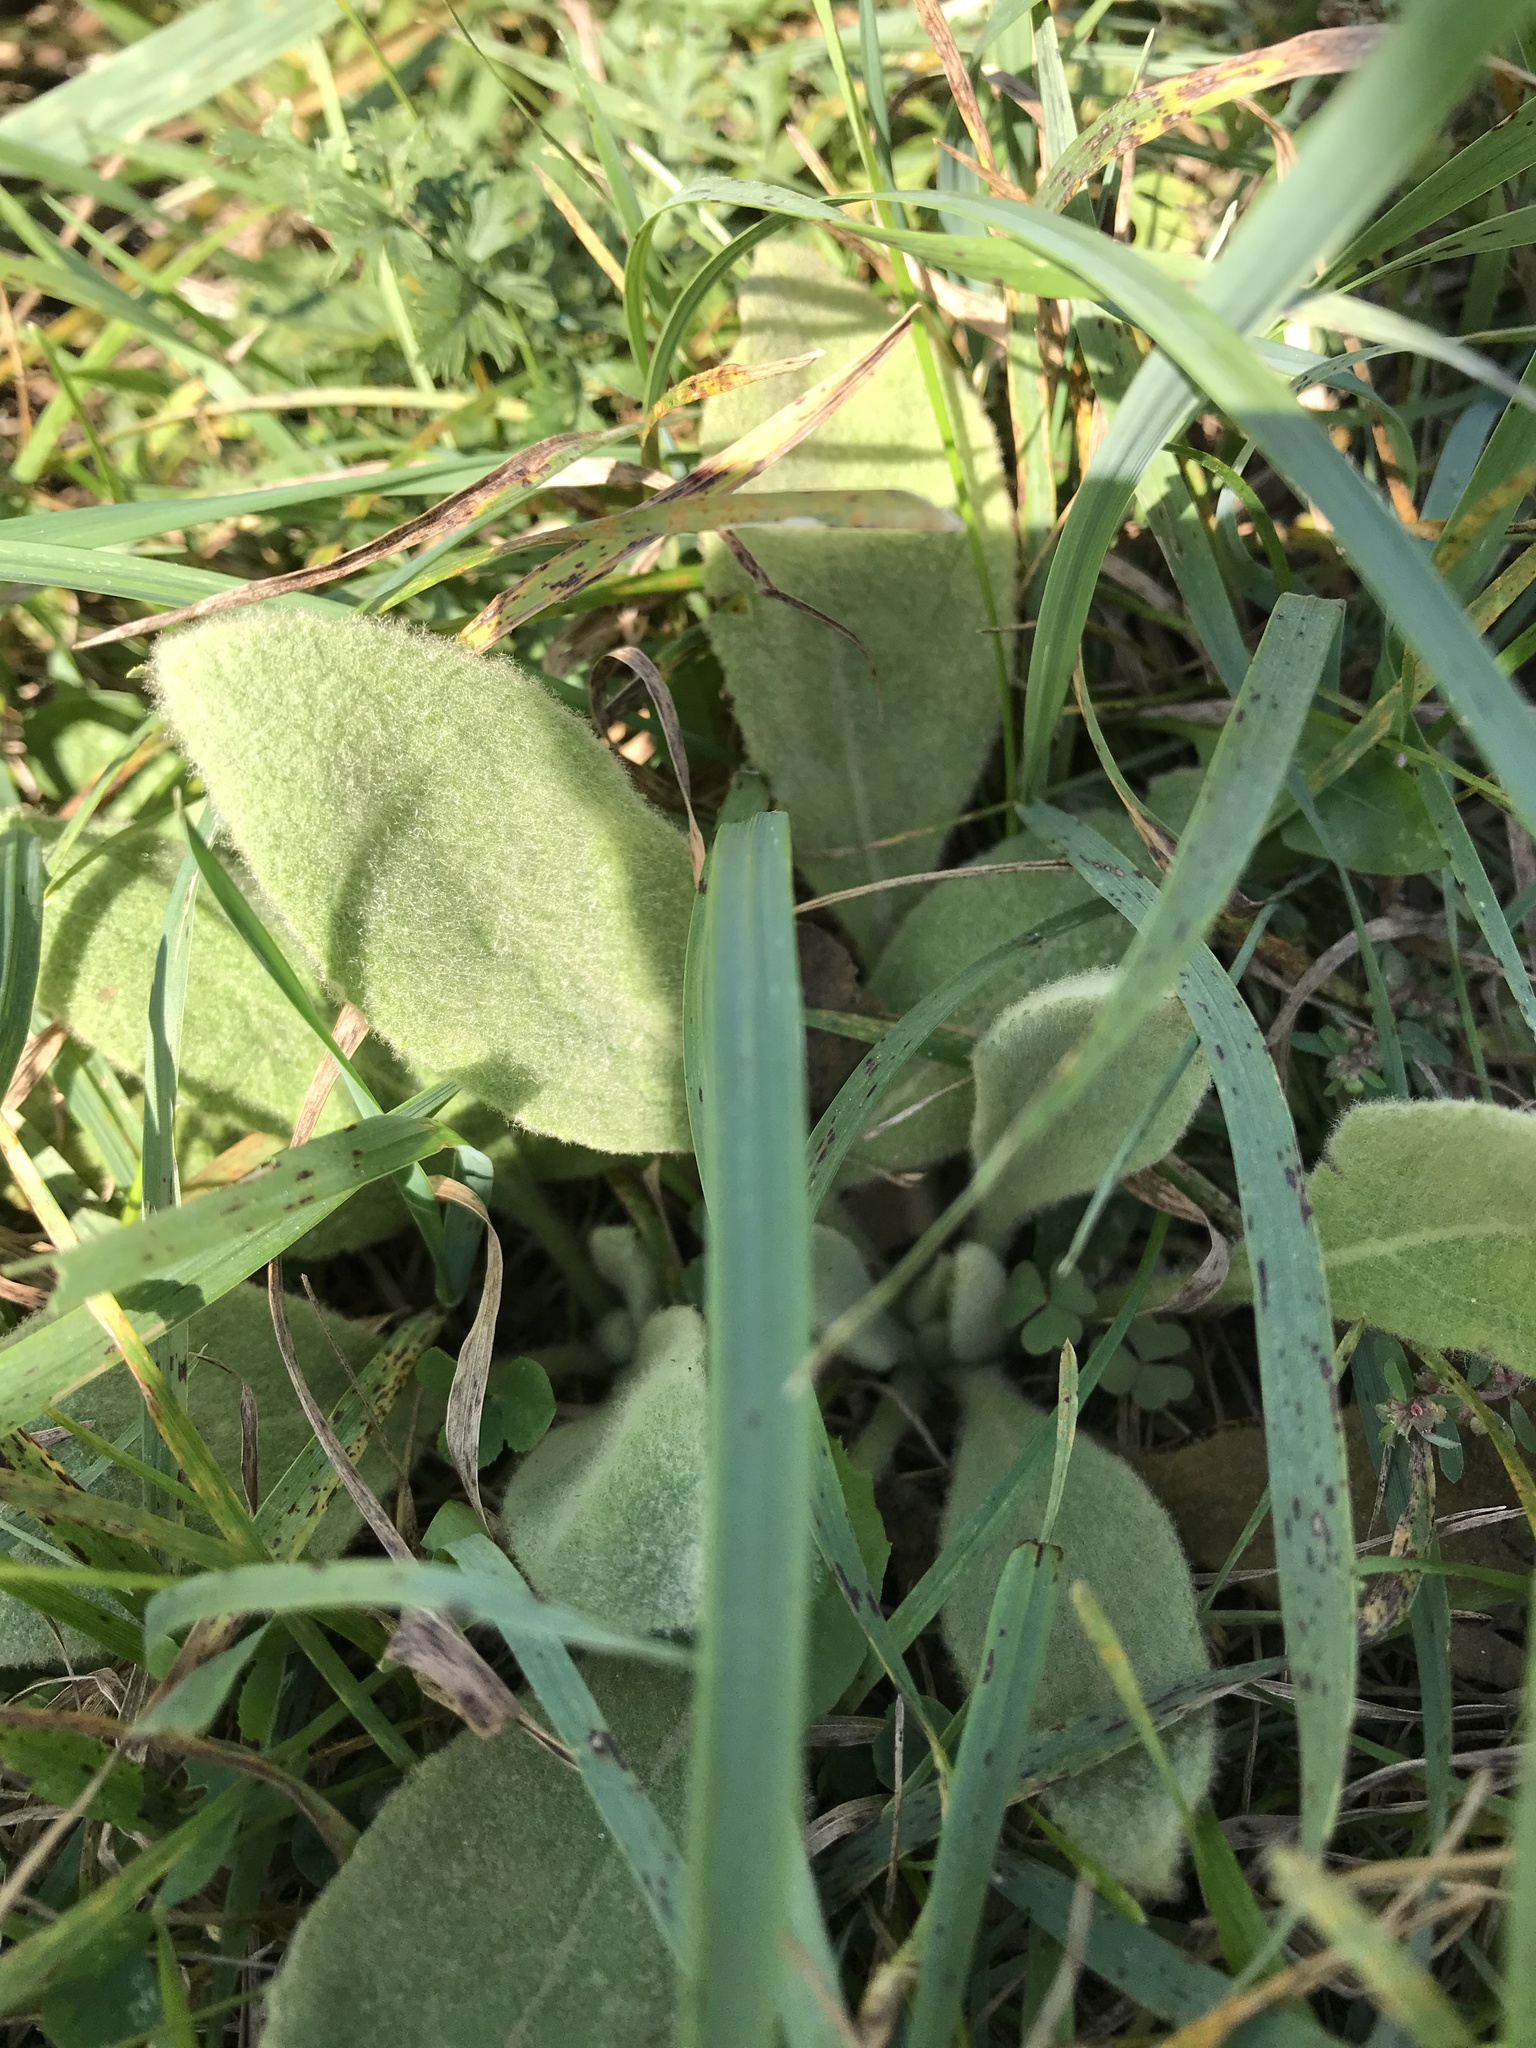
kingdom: Plantae
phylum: Tracheophyta
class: Magnoliopsida
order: Lamiales
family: Scrophulariaceae
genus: Verbascum
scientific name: Verbascum thapsus
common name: Common mullein
